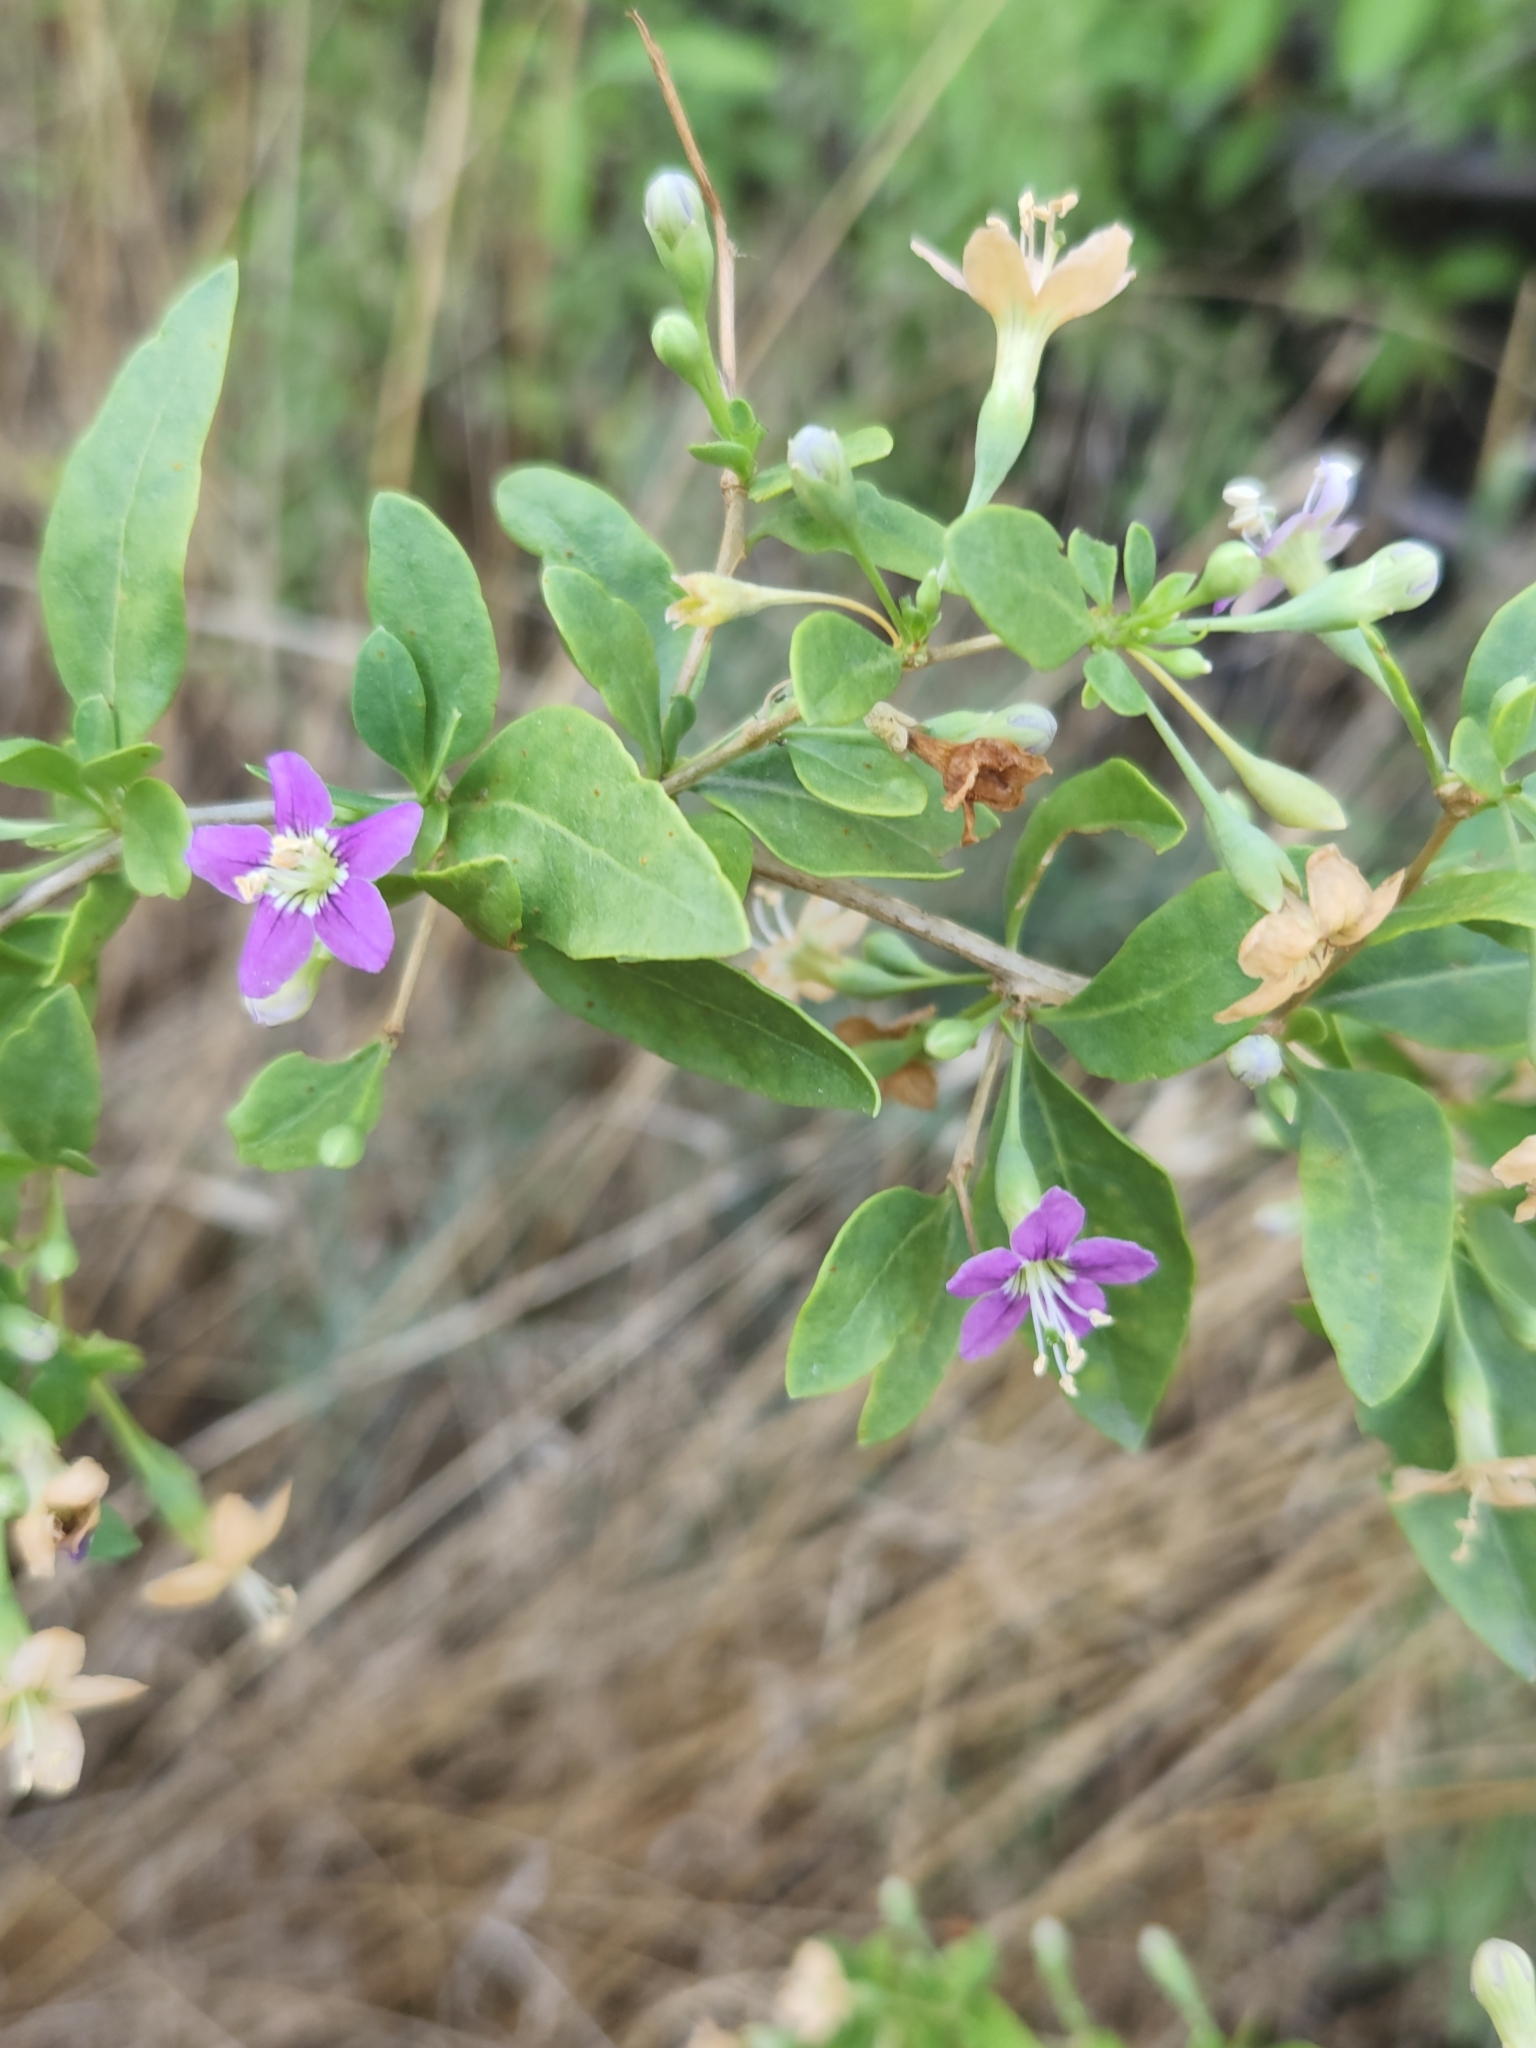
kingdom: Plantae
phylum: Tracheophyta
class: Magnoliopsida
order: Solanales
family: Solanaceae
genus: Lycium
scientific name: Lycium barbarum
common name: Duke of argyll's teaplant
